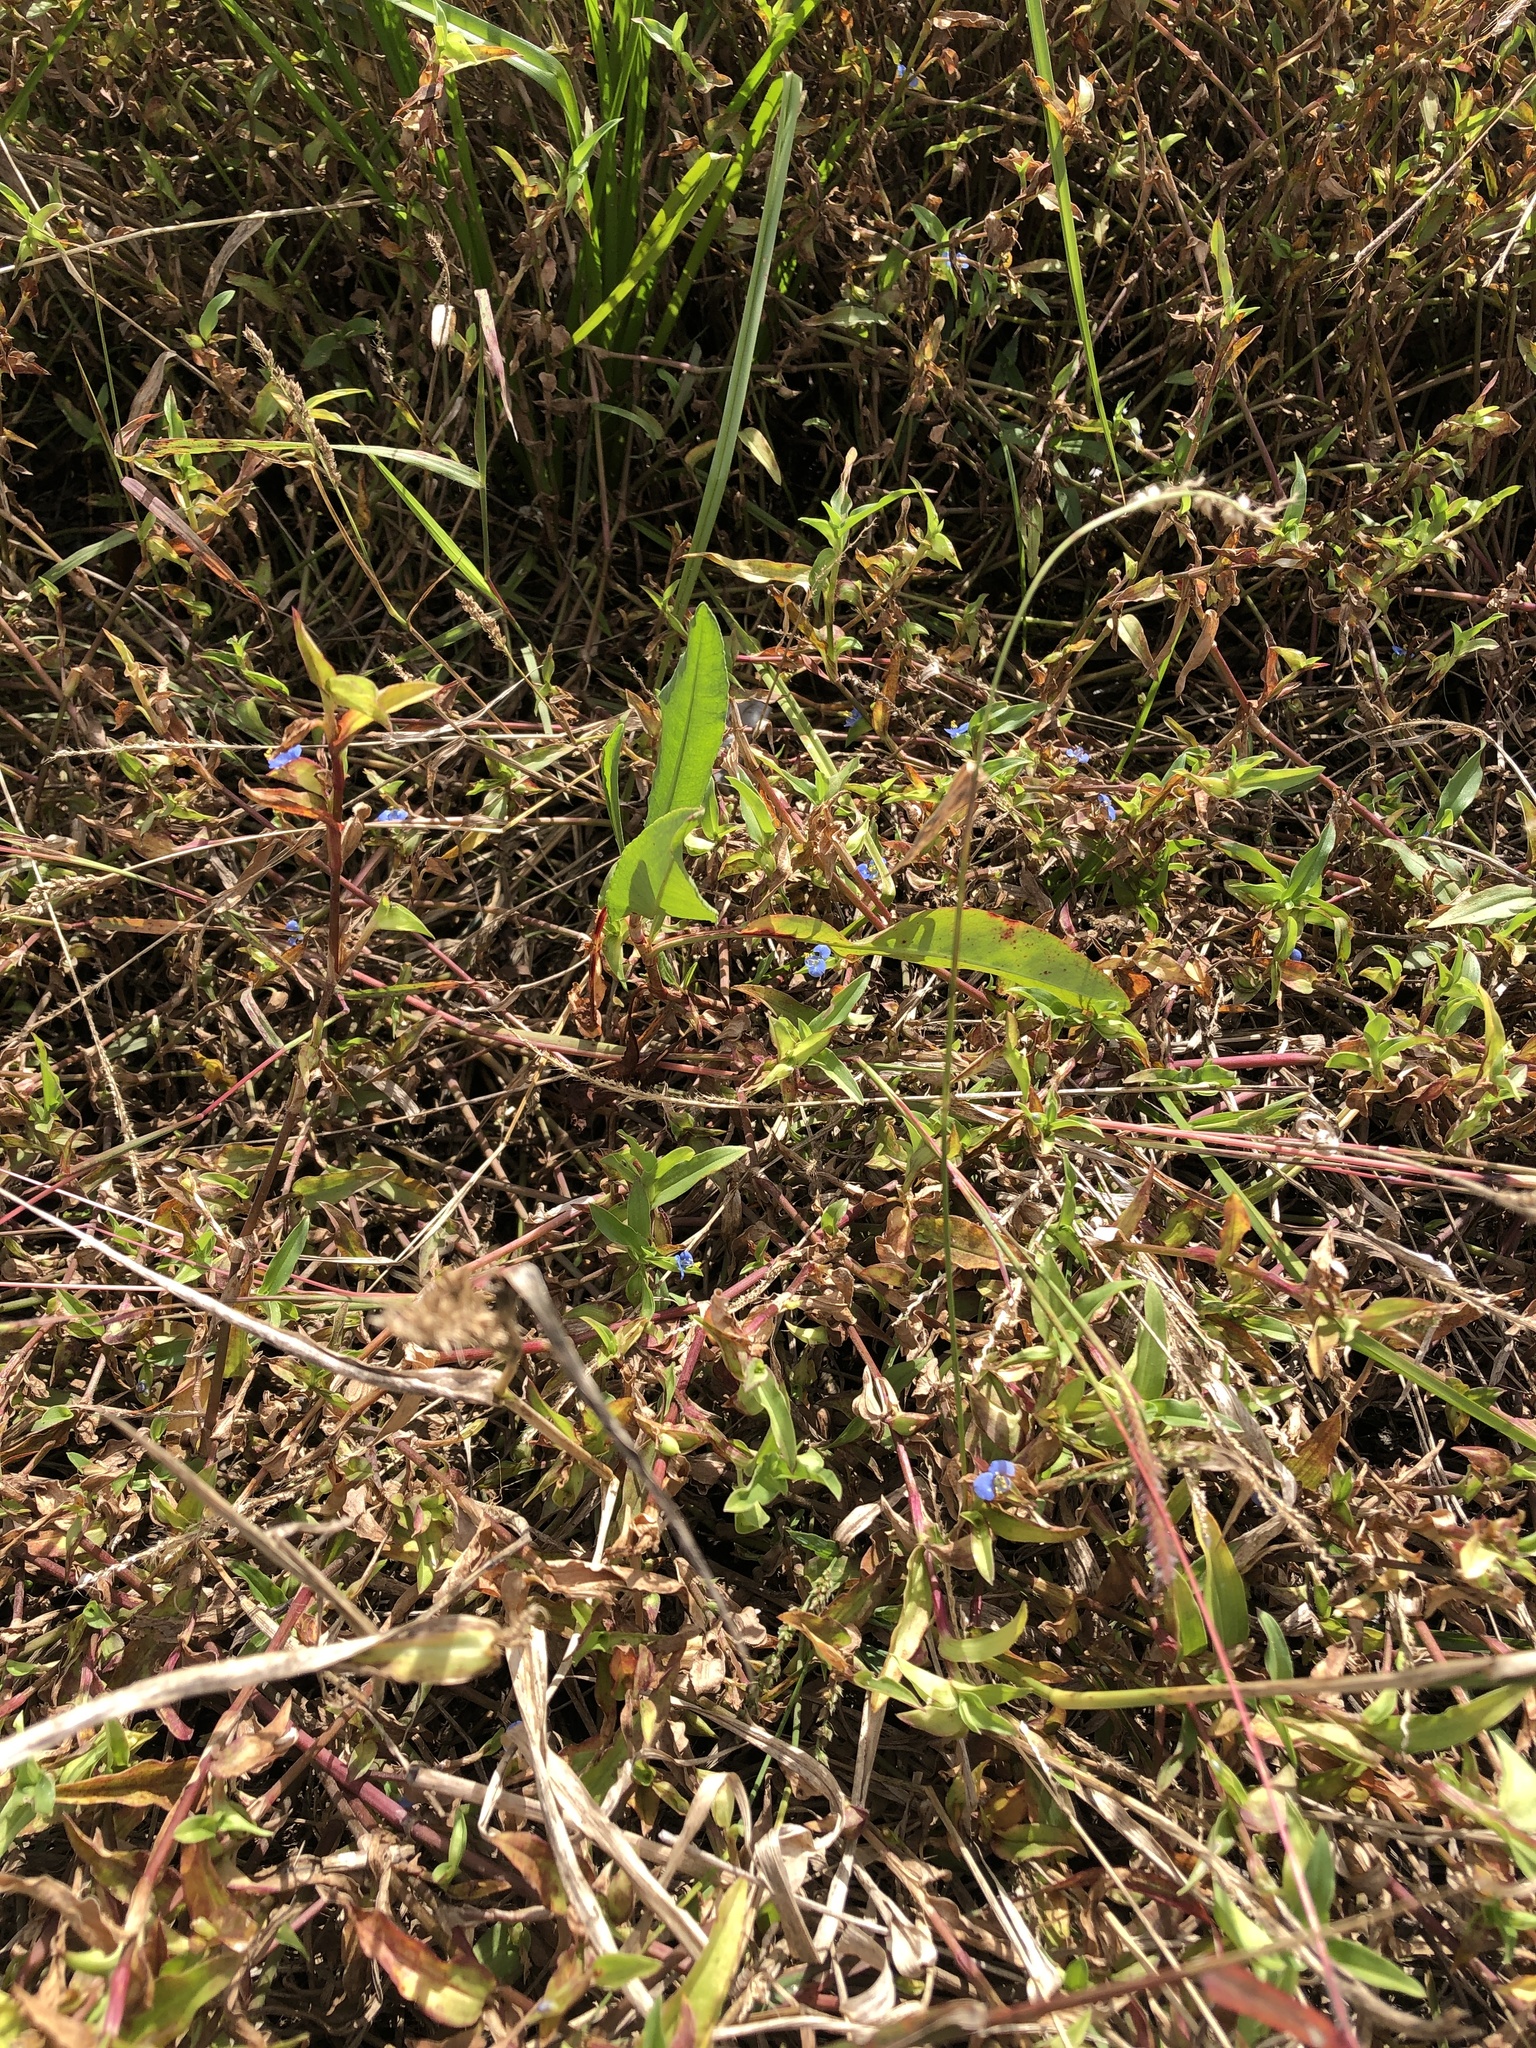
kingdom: Plantae
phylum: Tracheophyta
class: Liliopsida
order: Commelinales
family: Commelinaceae
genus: Commelina
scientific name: Commelina diffusa
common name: Climbing dayflower
